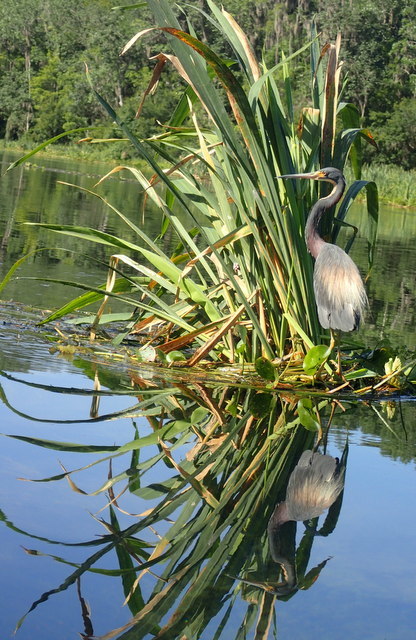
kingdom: Animalia
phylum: Chordata
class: Aves
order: Pelecaniformes
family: Ardeidae
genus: Egretta
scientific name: Egretta tricolor
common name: Tricolored heron
